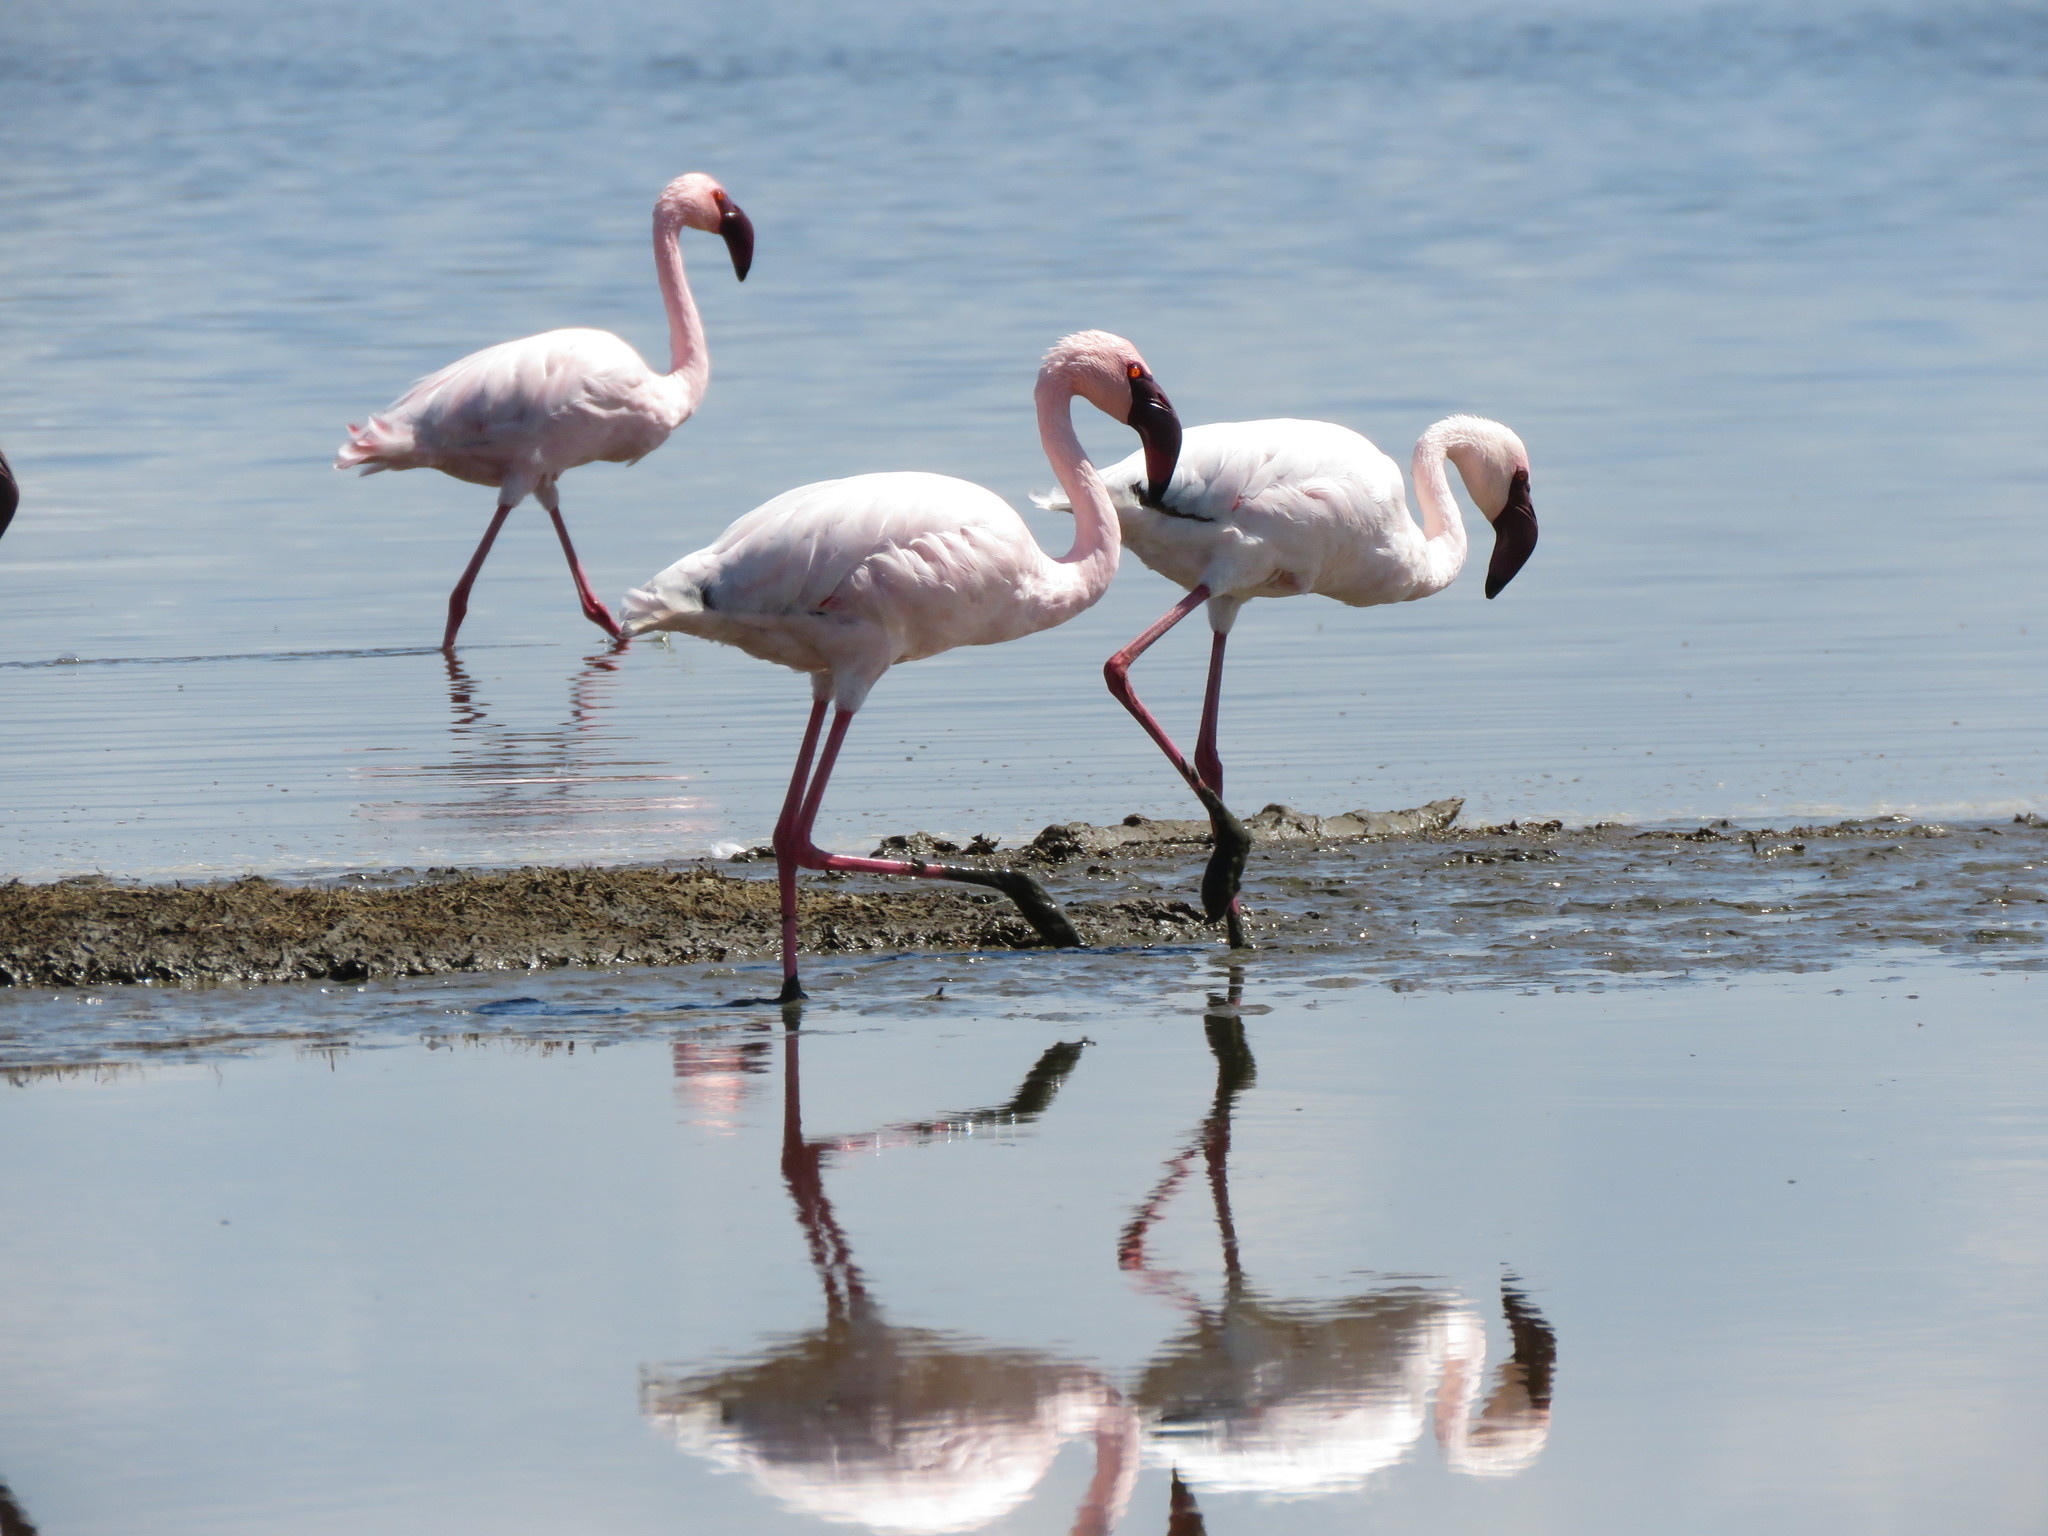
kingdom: Animalia
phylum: Chordata
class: Aves
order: Phoenicopteriformes
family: Phoenicopteridae
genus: Phoeniconaias
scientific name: Phoeniconaias minor
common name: Lesser flamingo
